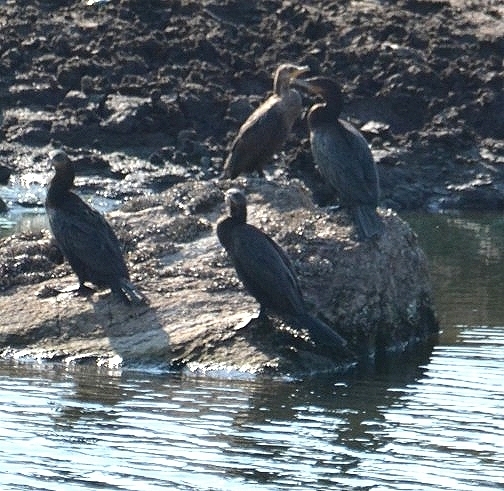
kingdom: Animalia
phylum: Chordata
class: Aves
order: Suliformes
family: Phalacrocoracidae
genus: Phalacrocorax
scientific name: Phalacrocorax brasilianus
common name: Neotropic cormorant
